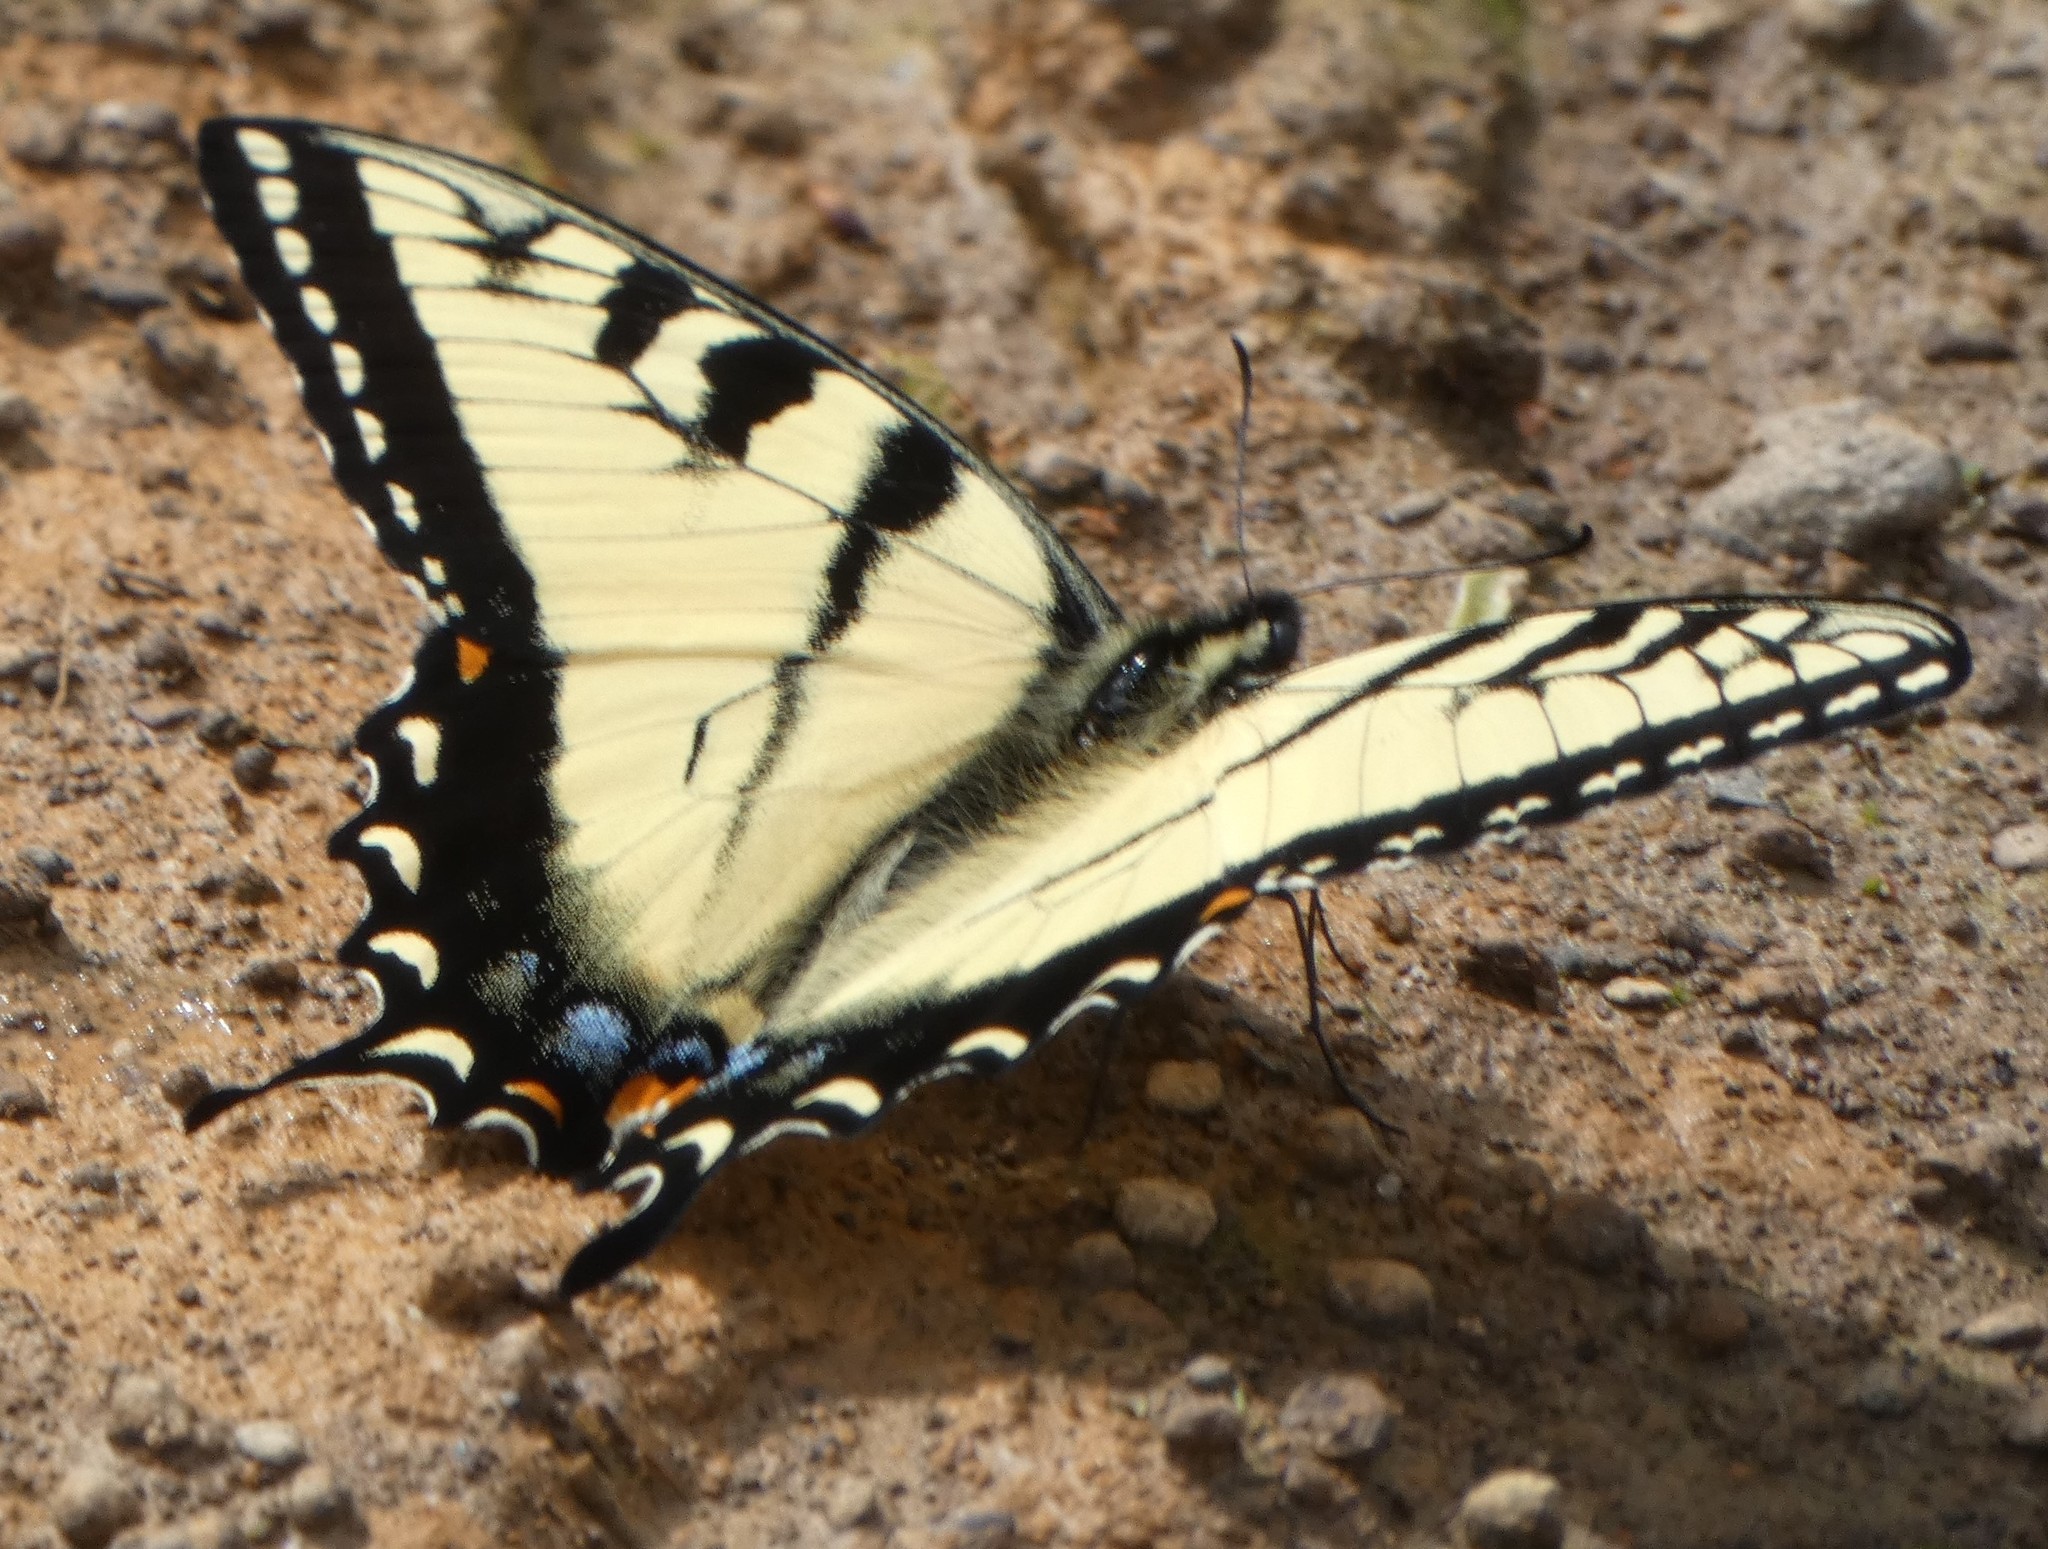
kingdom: Animalia
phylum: Arthropoda
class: Insecta
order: Lepidoptera
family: Papilionidae
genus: Papilio
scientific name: Papilio glaucus
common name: Tiger swallowtail
